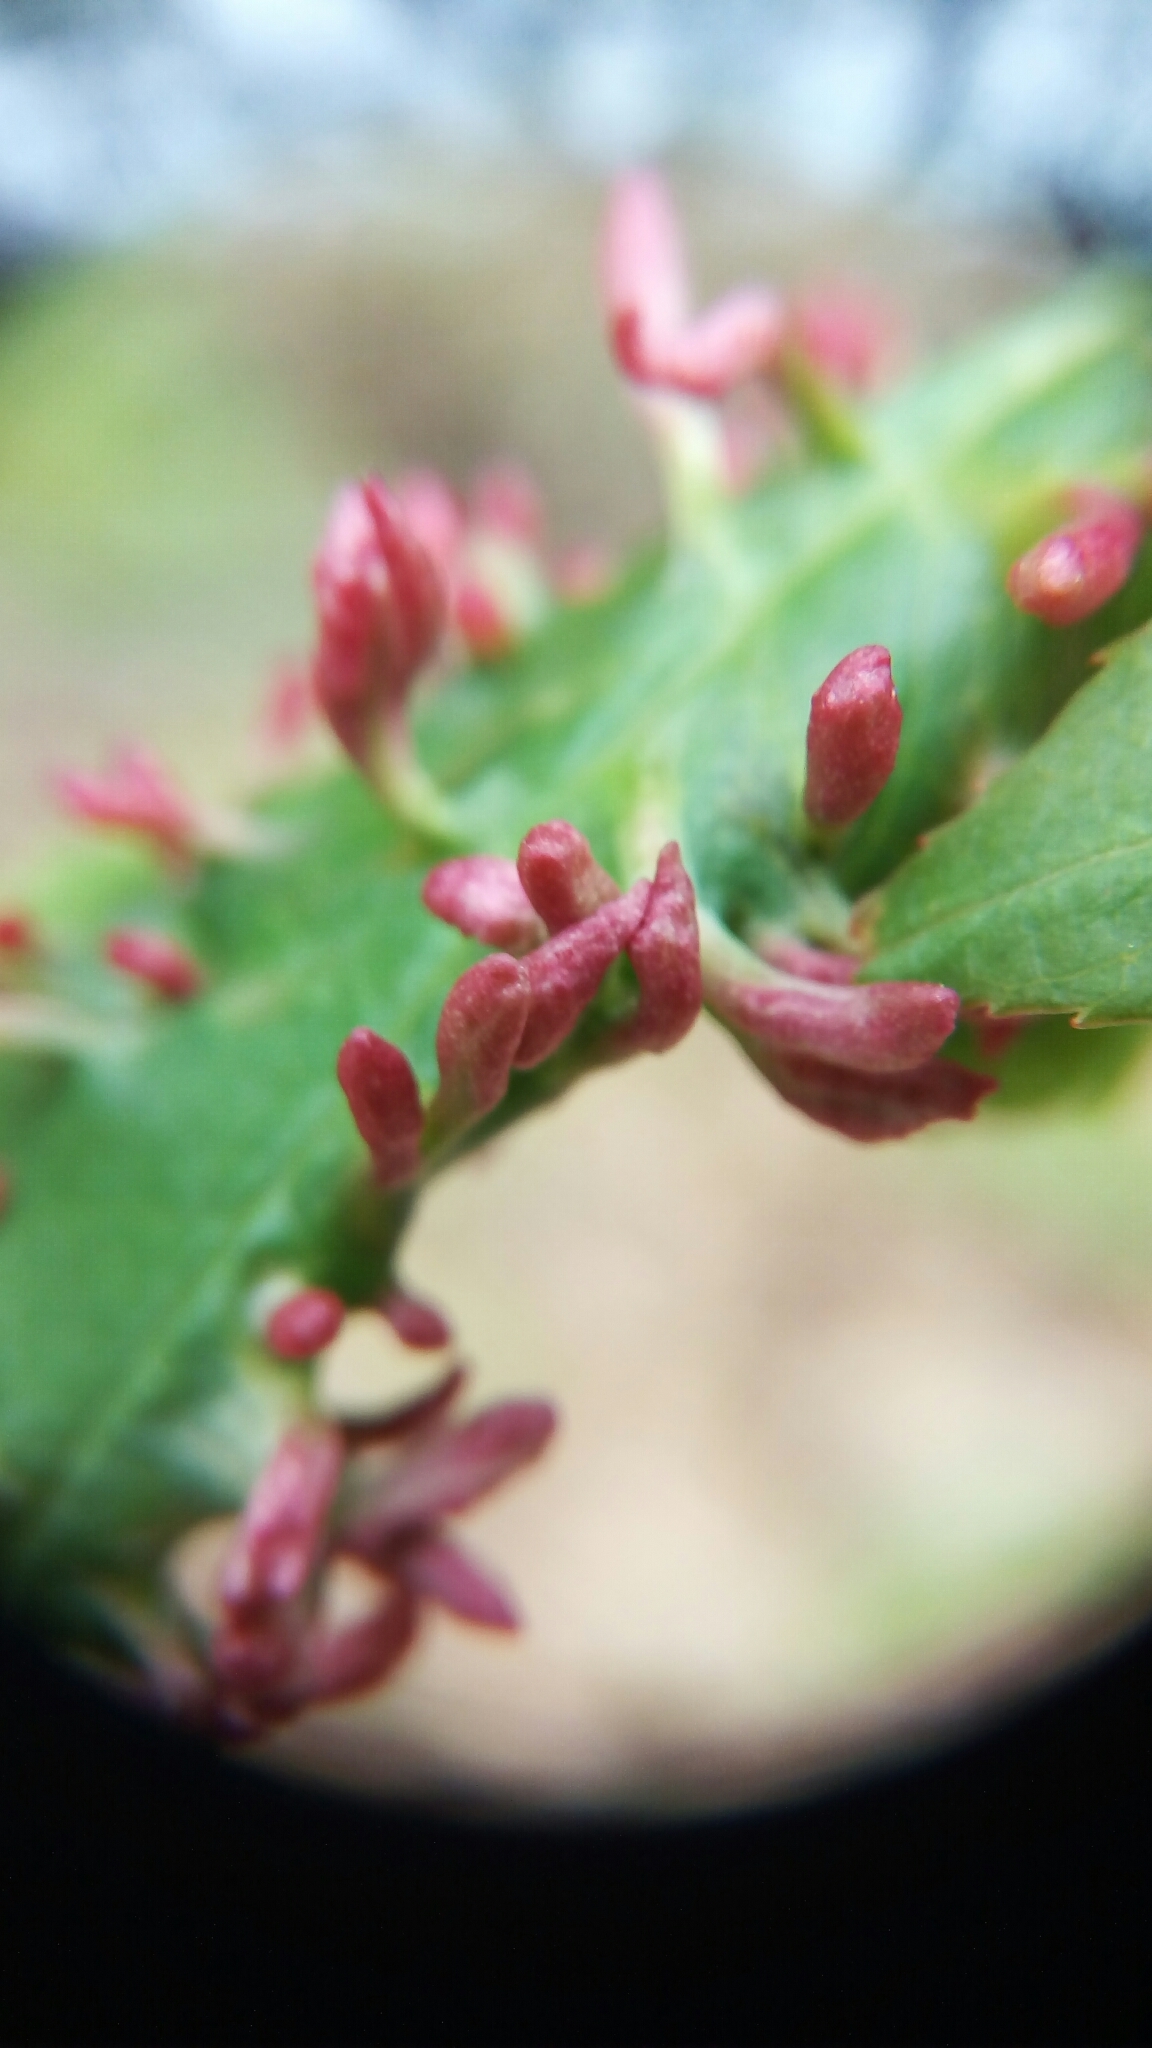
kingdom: Animalia
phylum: Arthropoda
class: Arachnida
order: Trombidiformes
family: Eriophyidae
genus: Eriophyes
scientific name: Eriophyes
